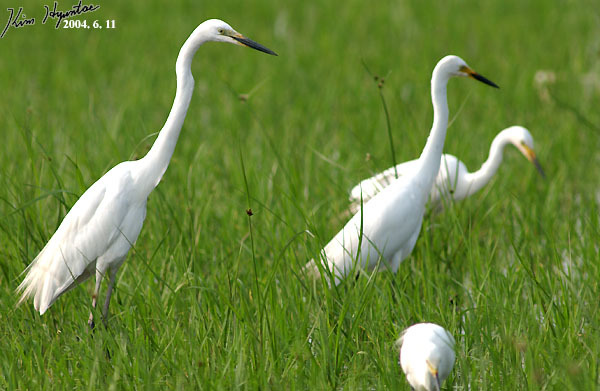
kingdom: Animalia
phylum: Chordata
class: Aves
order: Pelecaniformes
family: Ardeidae
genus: Ardea
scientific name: Ardea alba
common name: Great egret
